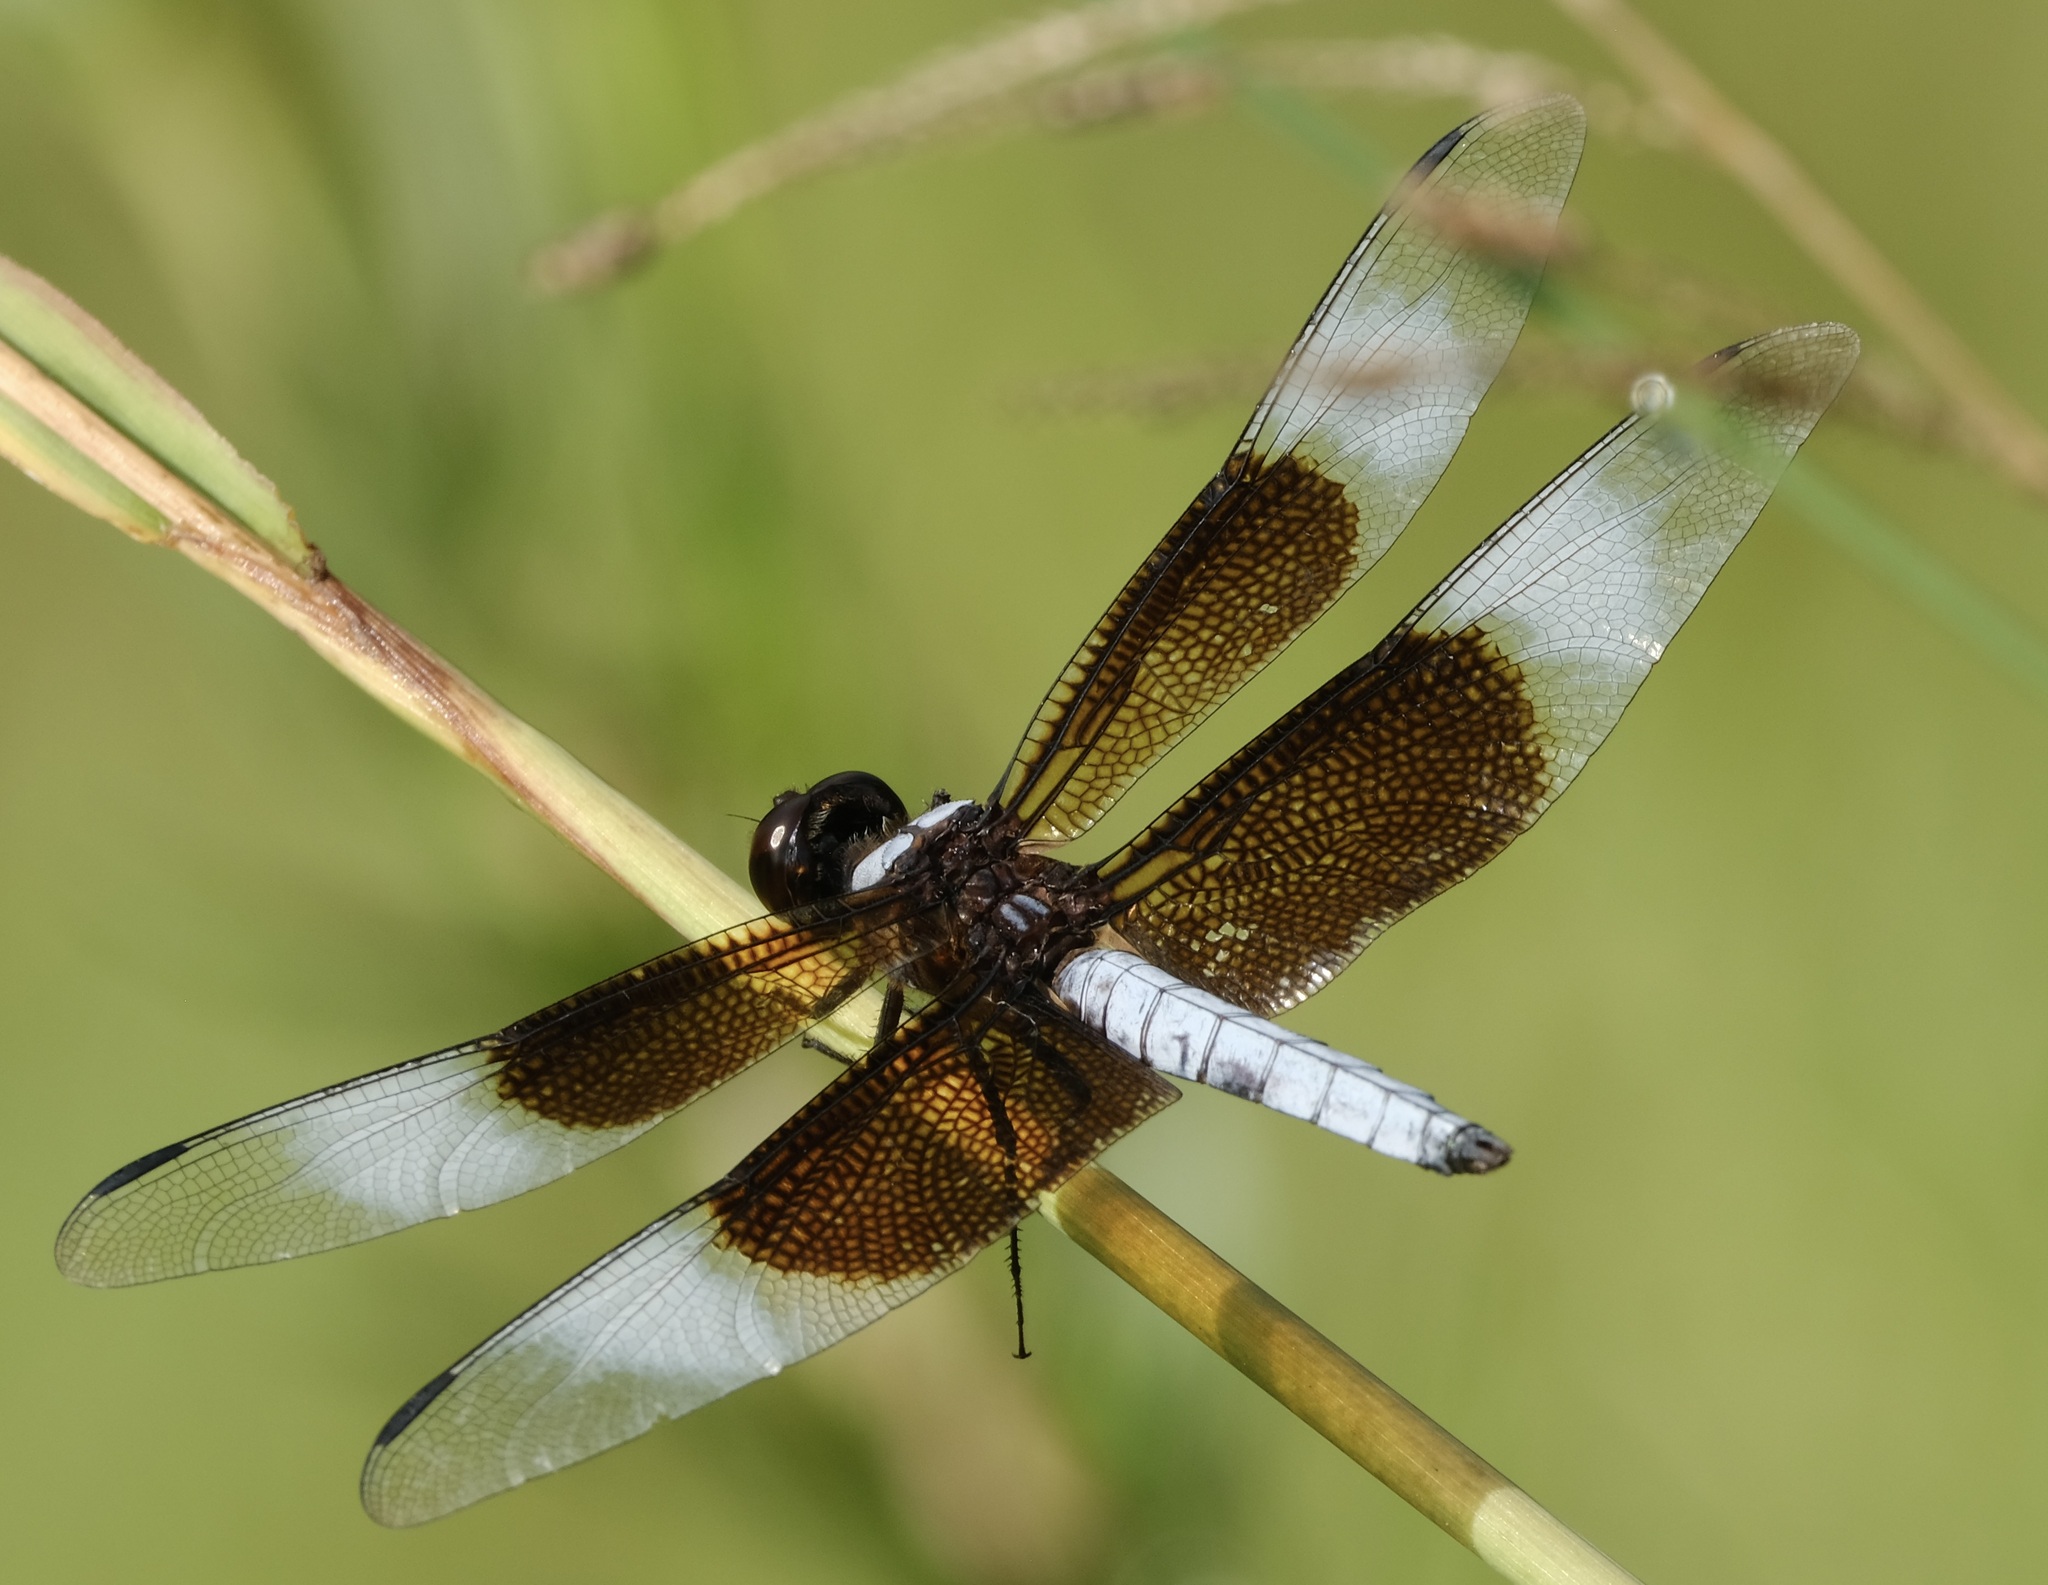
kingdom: Animalia
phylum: Arthropoda
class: Insecta
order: Odonata
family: Libellulidae
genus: Libellula
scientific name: Libellula luctuosa
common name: Widow skimmer
